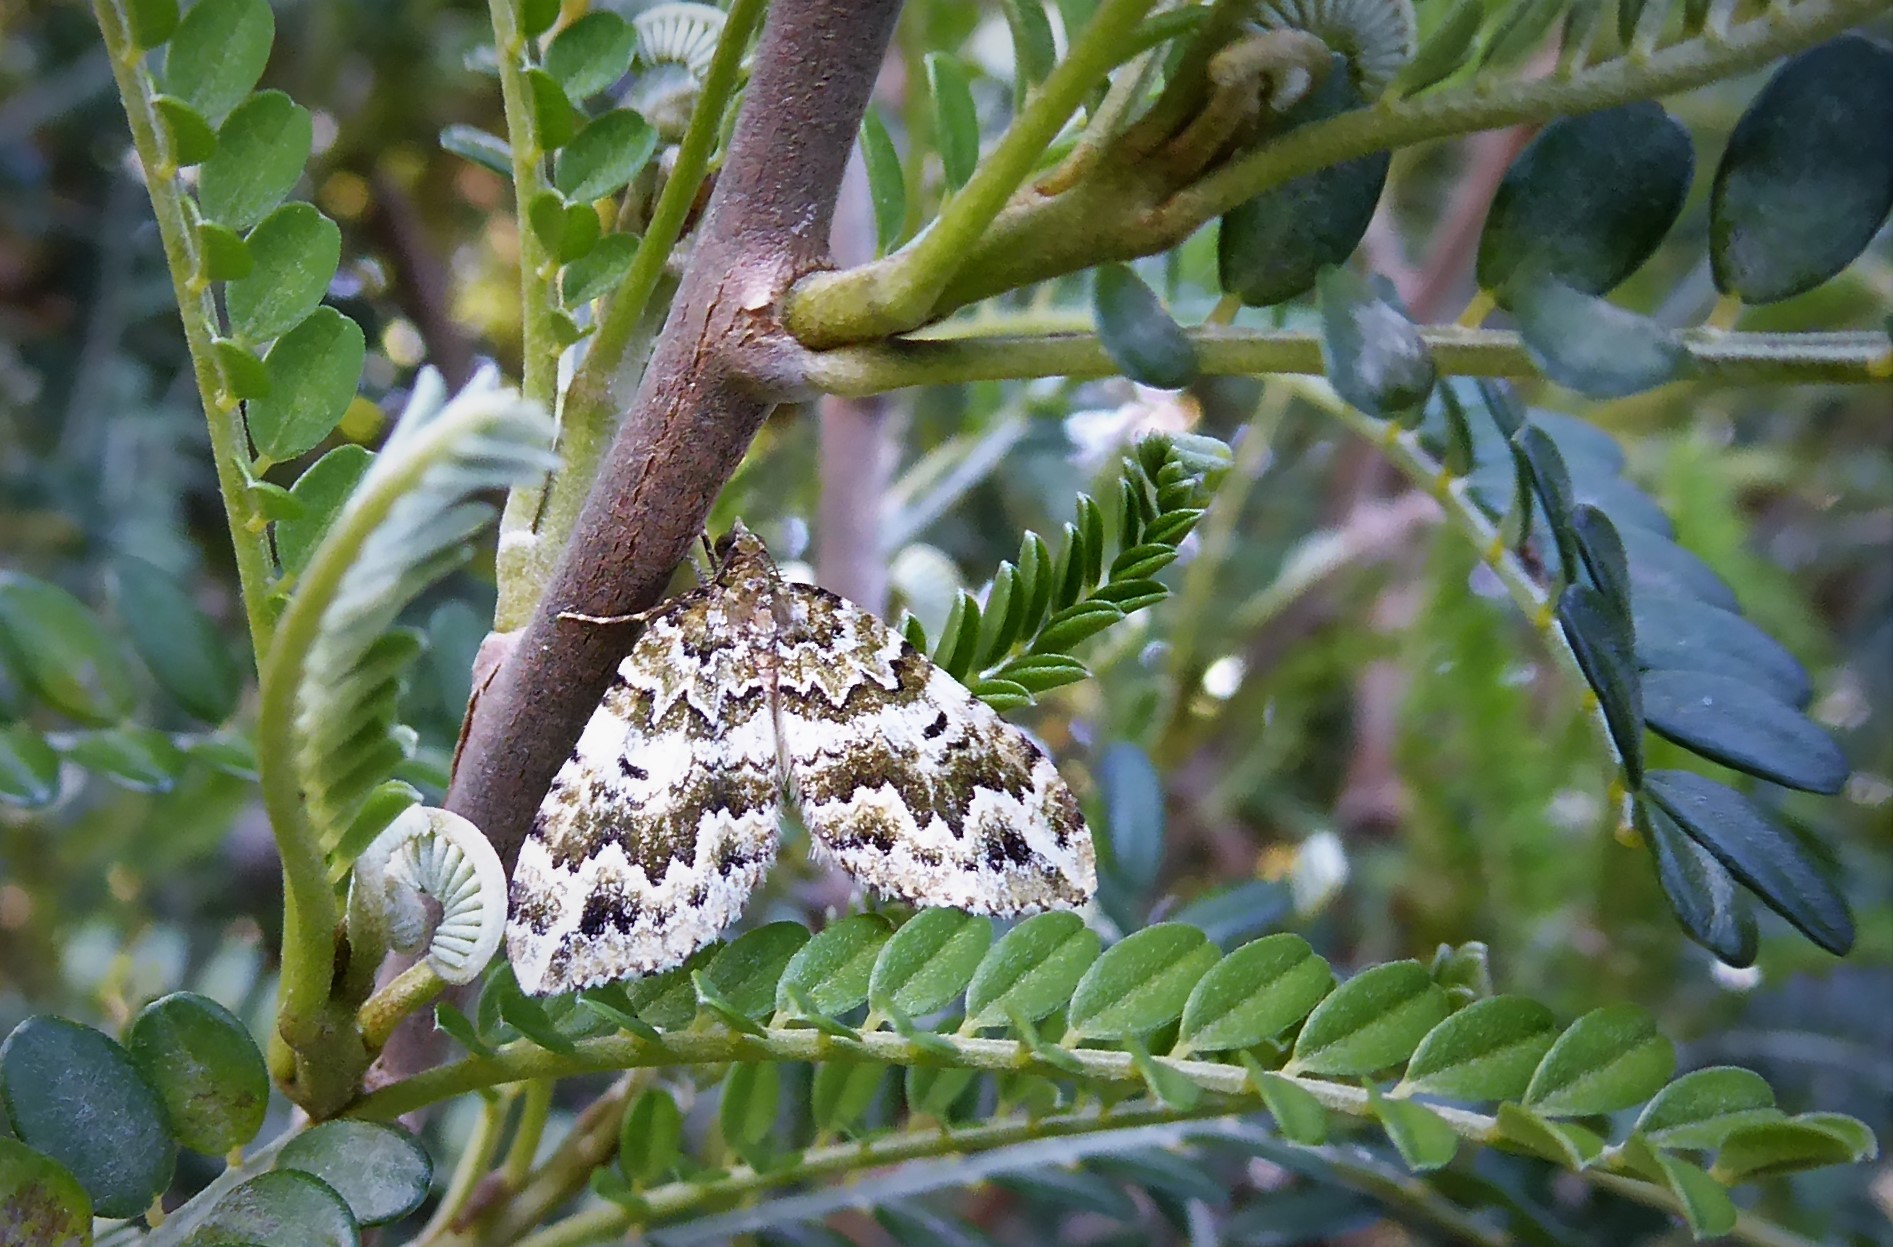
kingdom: Animalia
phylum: Arthropoda
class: Insecta
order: Lepidoptera
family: Geometridae
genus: Asaphodes
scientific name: Asaphodes beata
